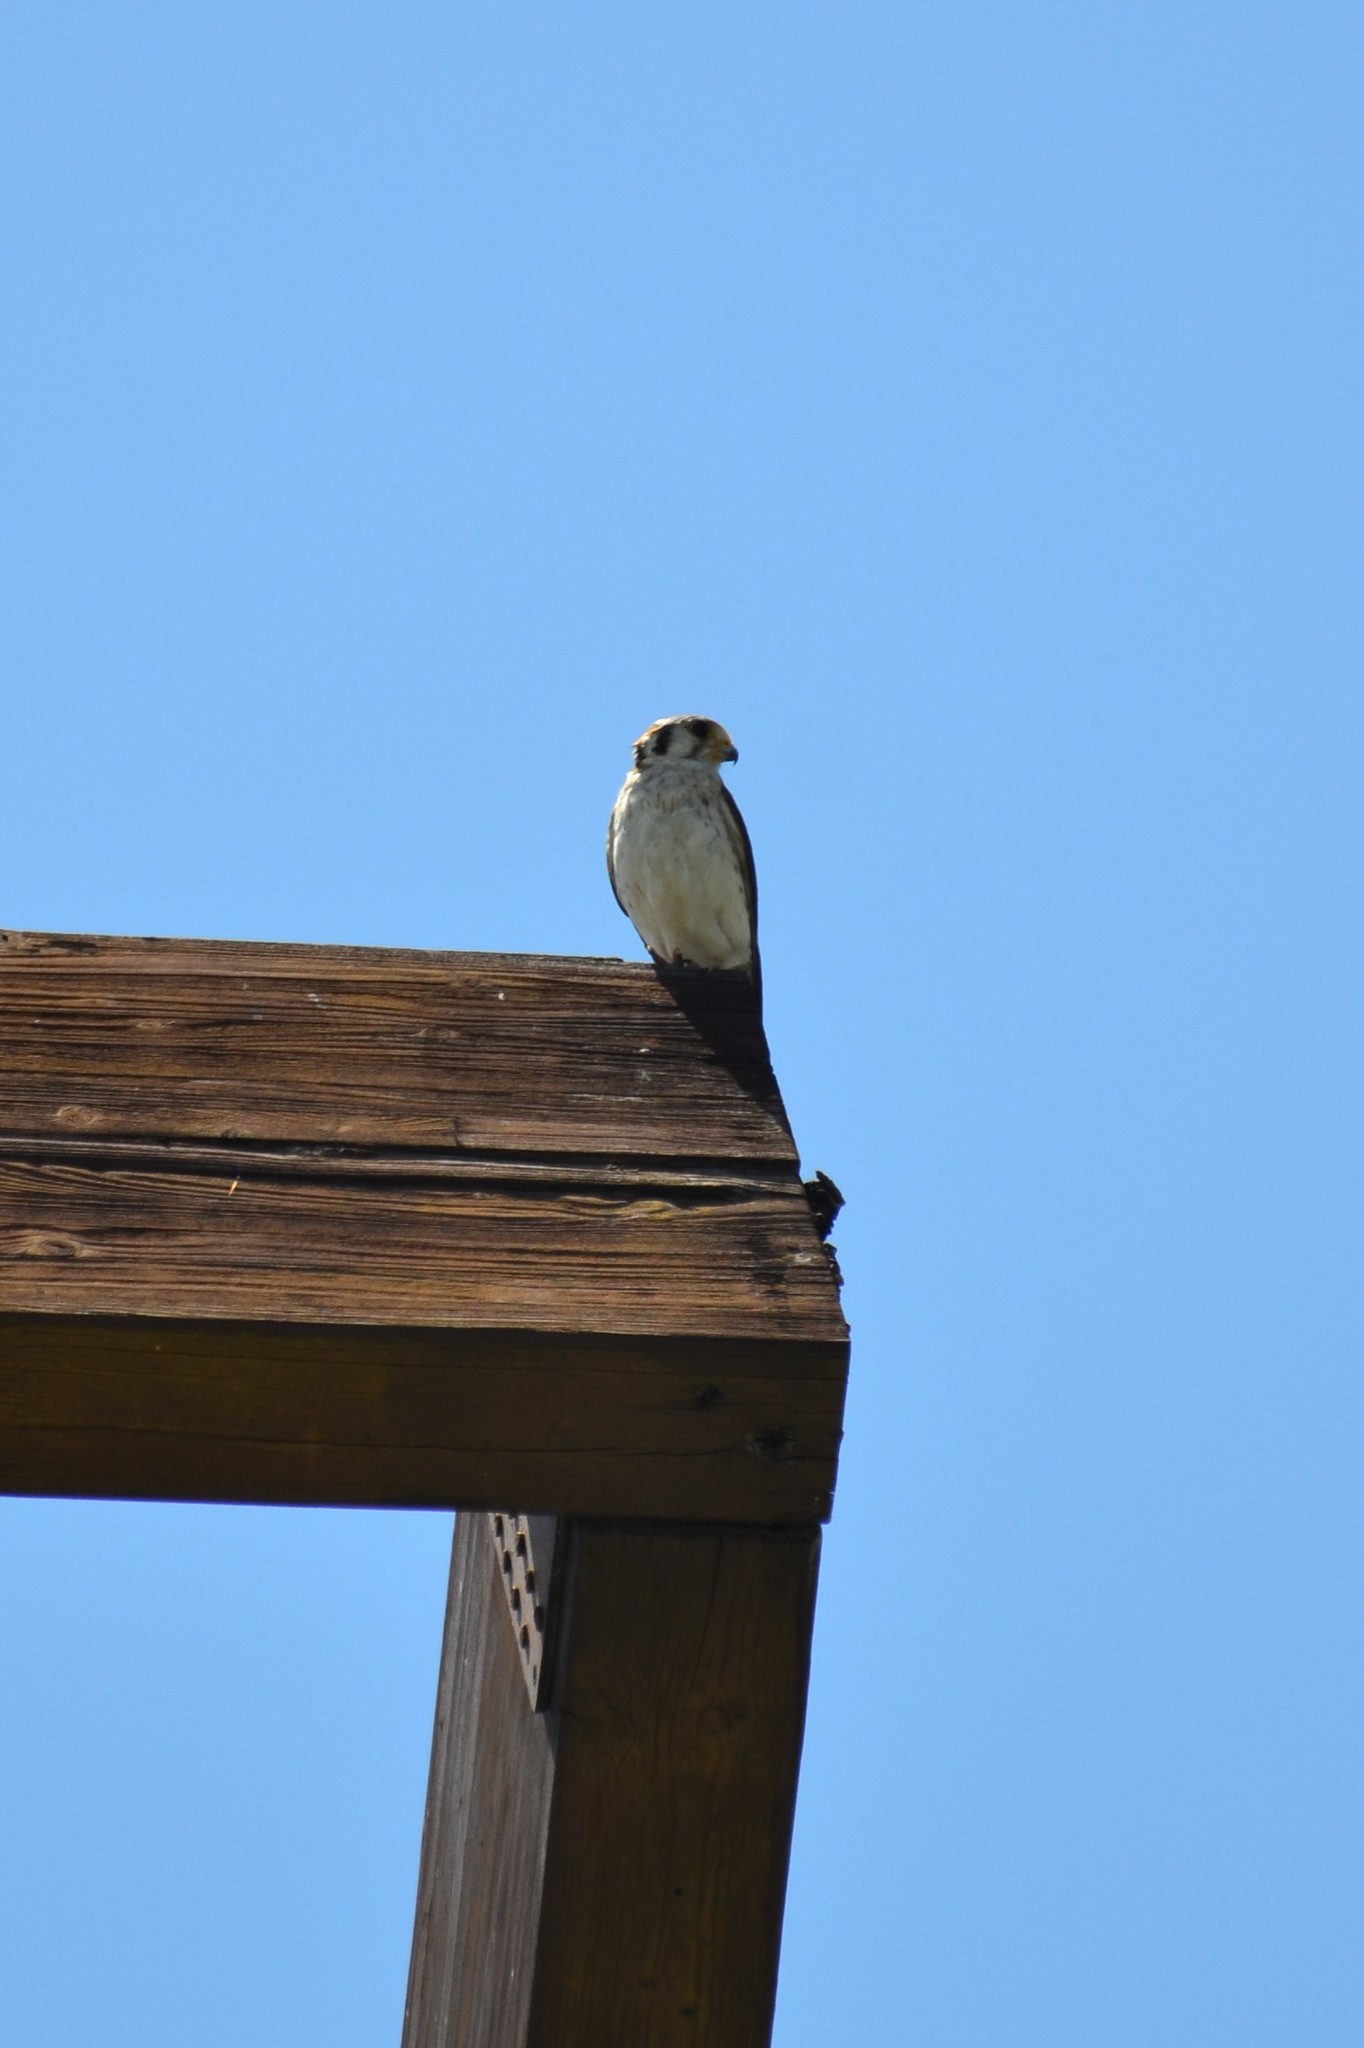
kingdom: Animalia
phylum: Chordata
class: Aves
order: Falconiformes
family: Falconidae
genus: Falco
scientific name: Falco sparverius
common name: American kestrel
